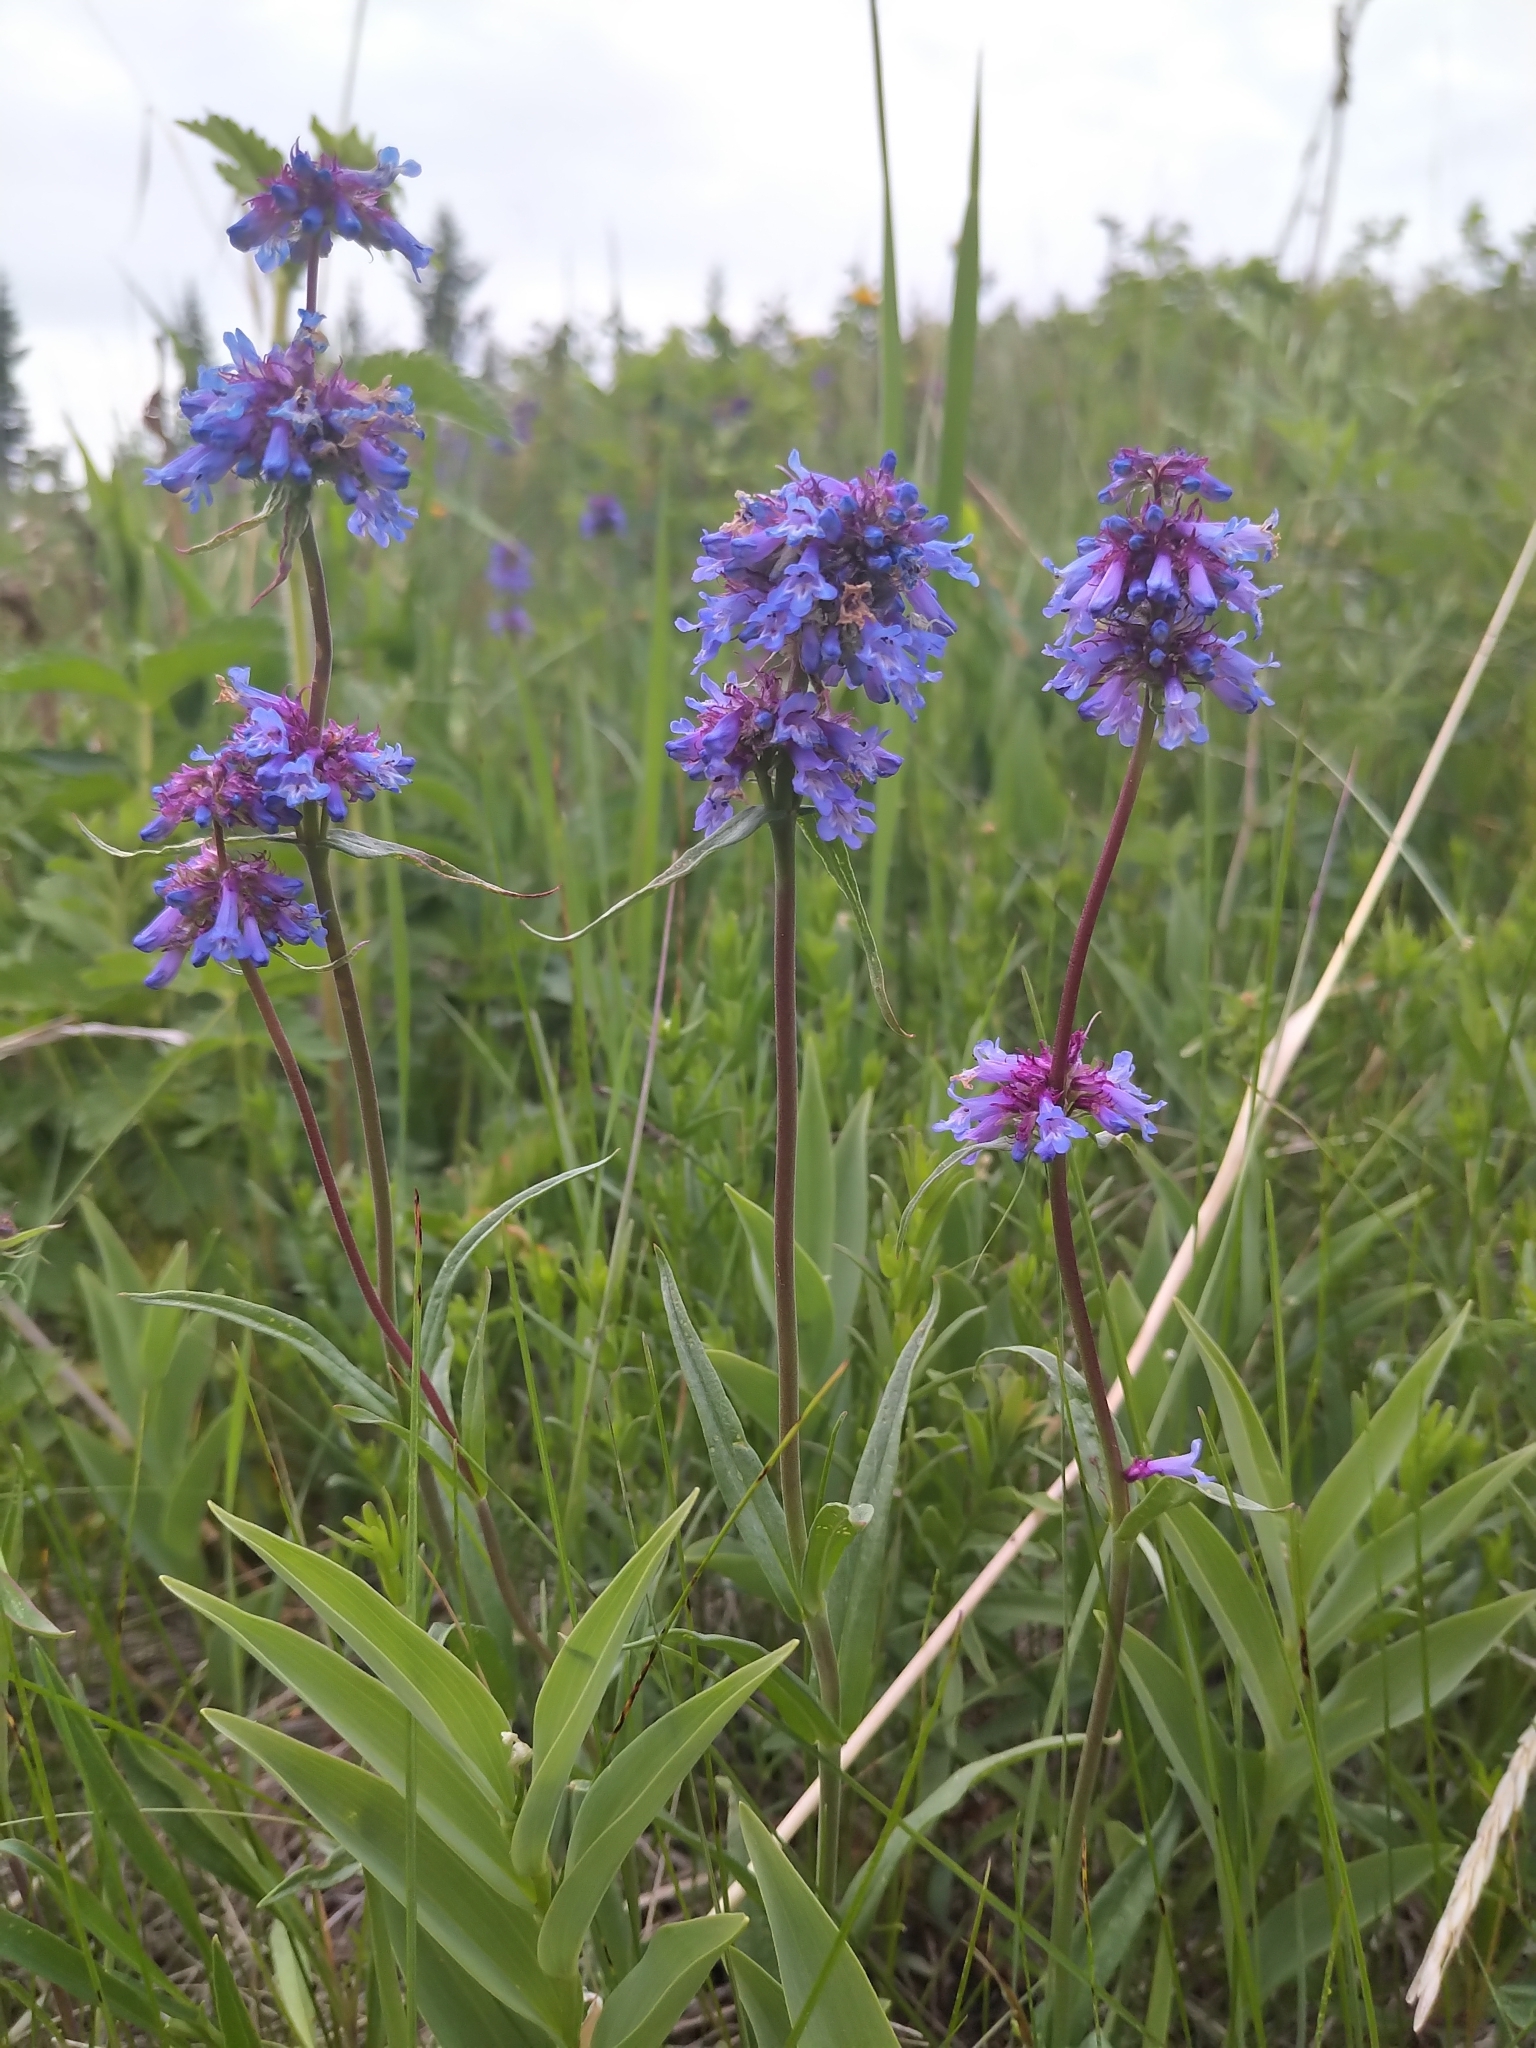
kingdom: Plantae
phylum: Tracheophyta
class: Magnoliopsida
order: Lamiales
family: Plantaginaceae
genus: Penstemon
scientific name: Penstemon procerus
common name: Small-flower penstemon
